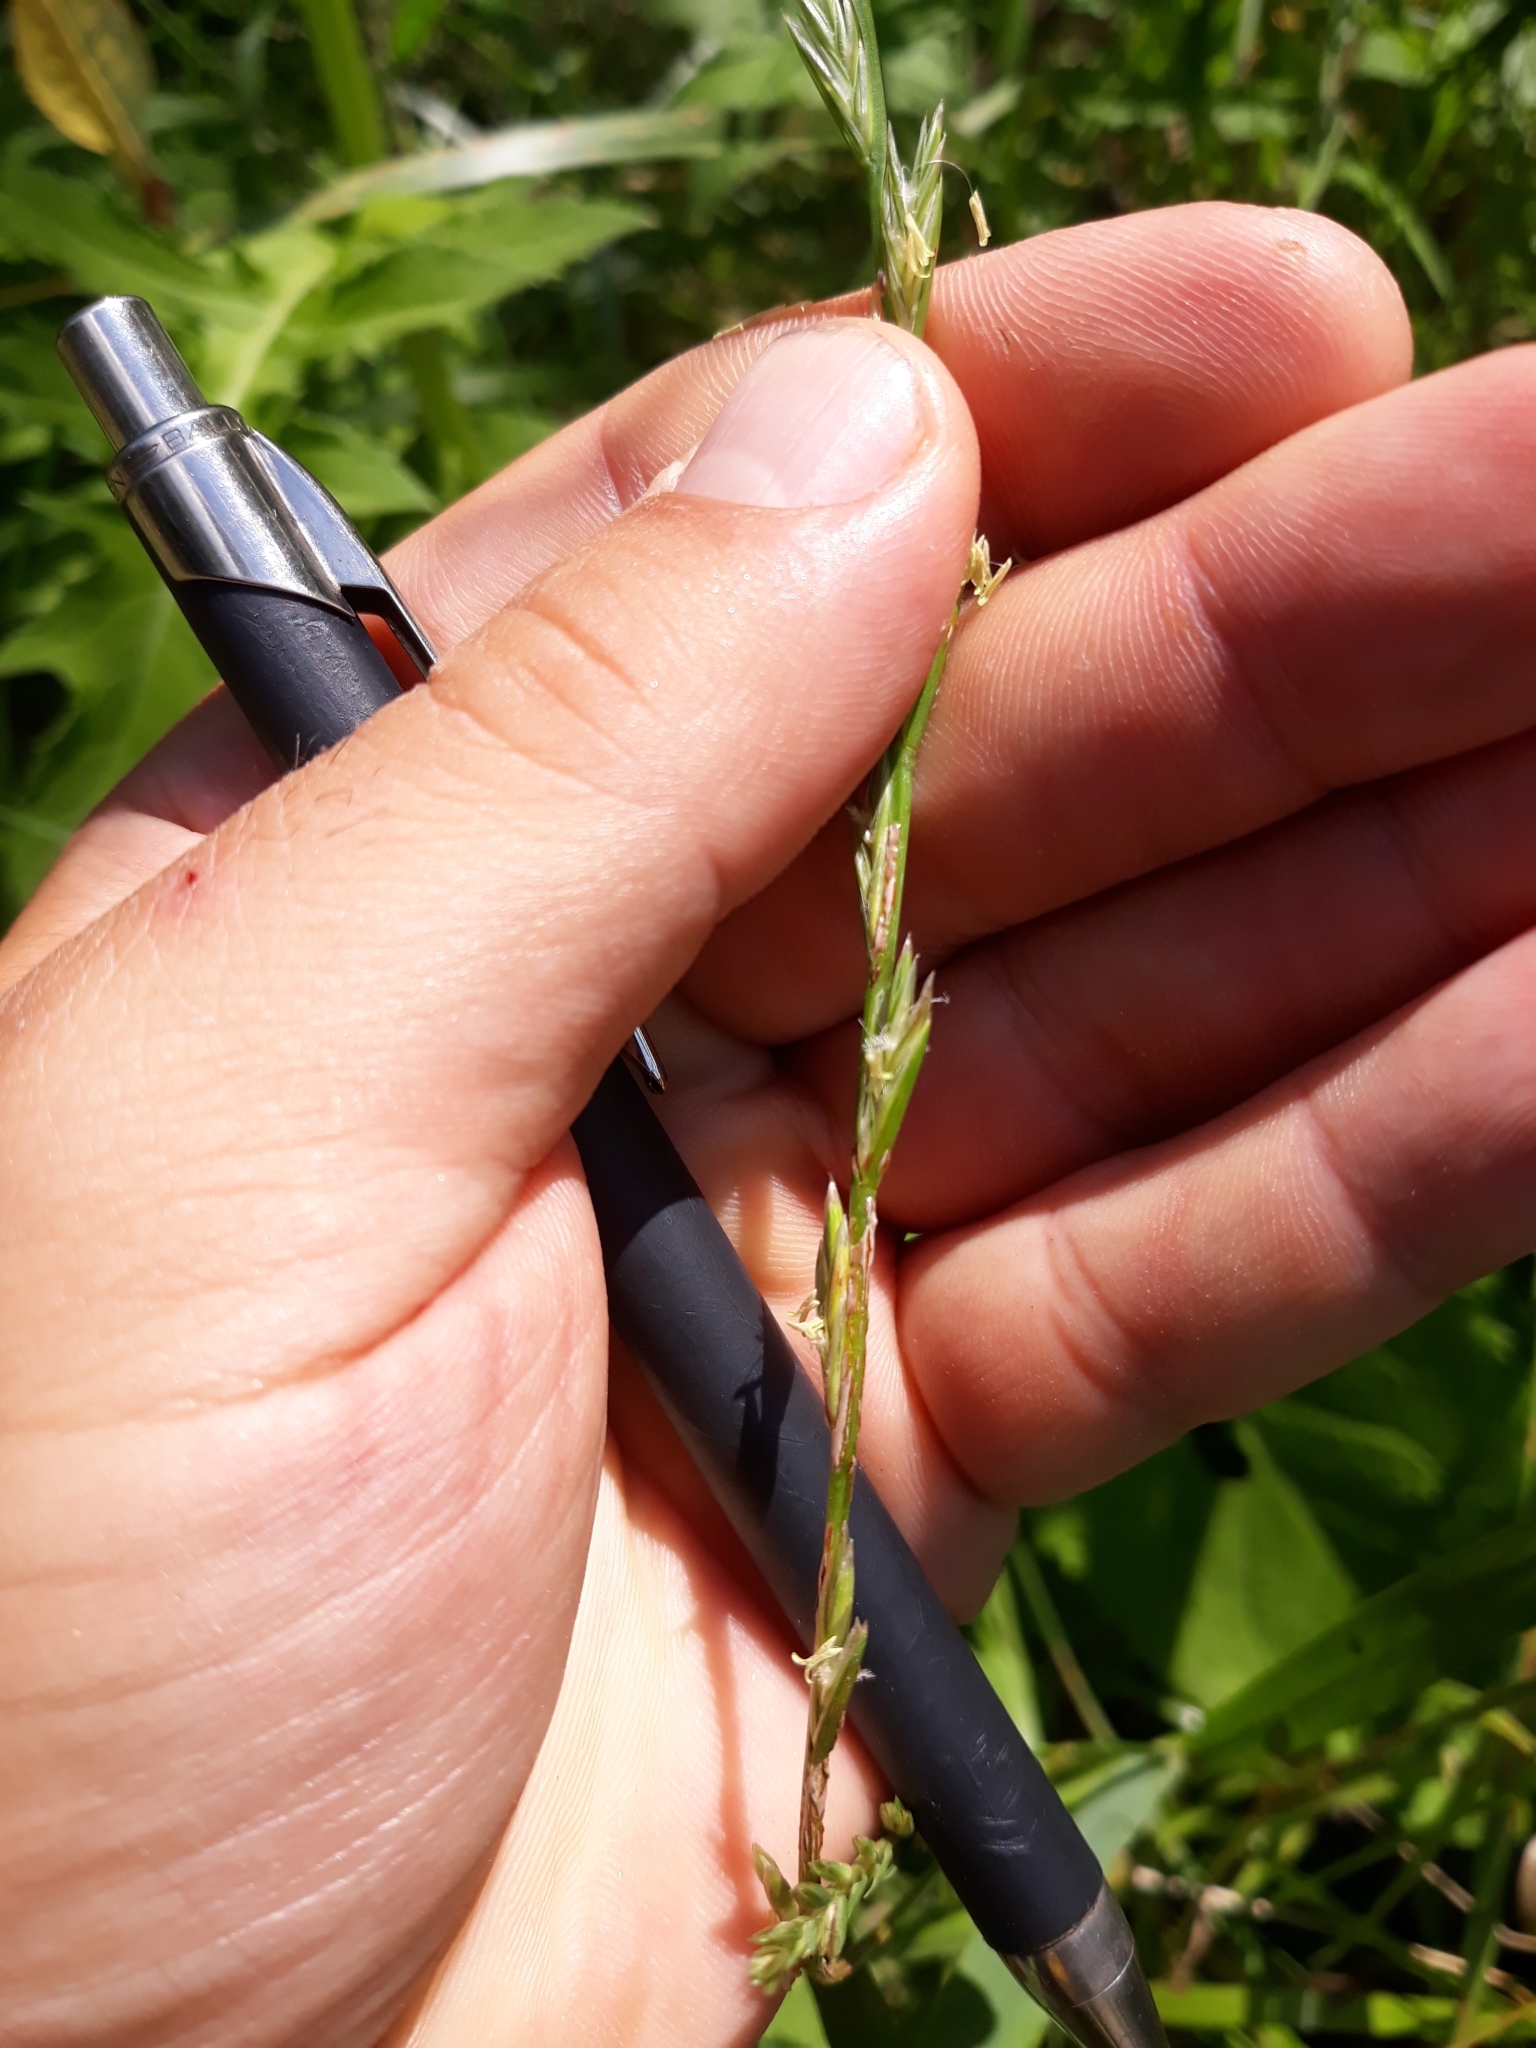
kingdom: Plantae
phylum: Tracheophyta
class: Liliopsida
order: Poales
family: Poaceae
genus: Lolium
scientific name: Lolium perenne
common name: Perennial ryegrass
